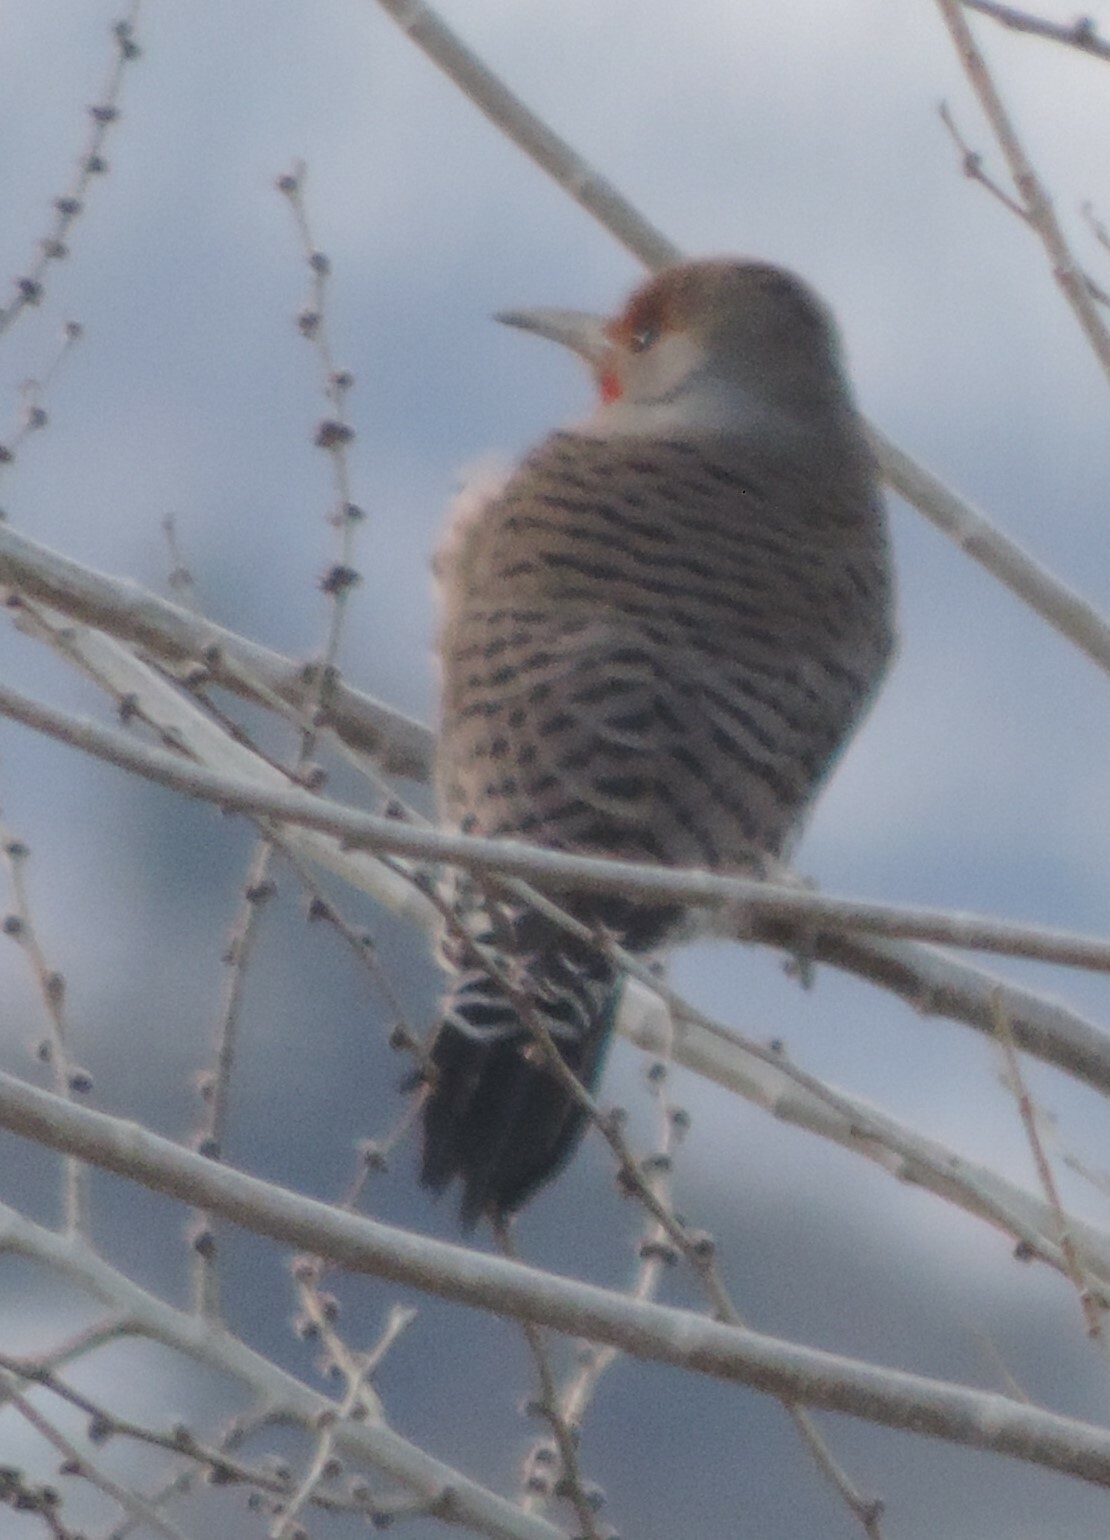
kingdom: Animalia
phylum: Chordata
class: Aves
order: Piciformes
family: Picidae
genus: Colaptes
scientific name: Colaptes auratus
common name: Northern flicker
